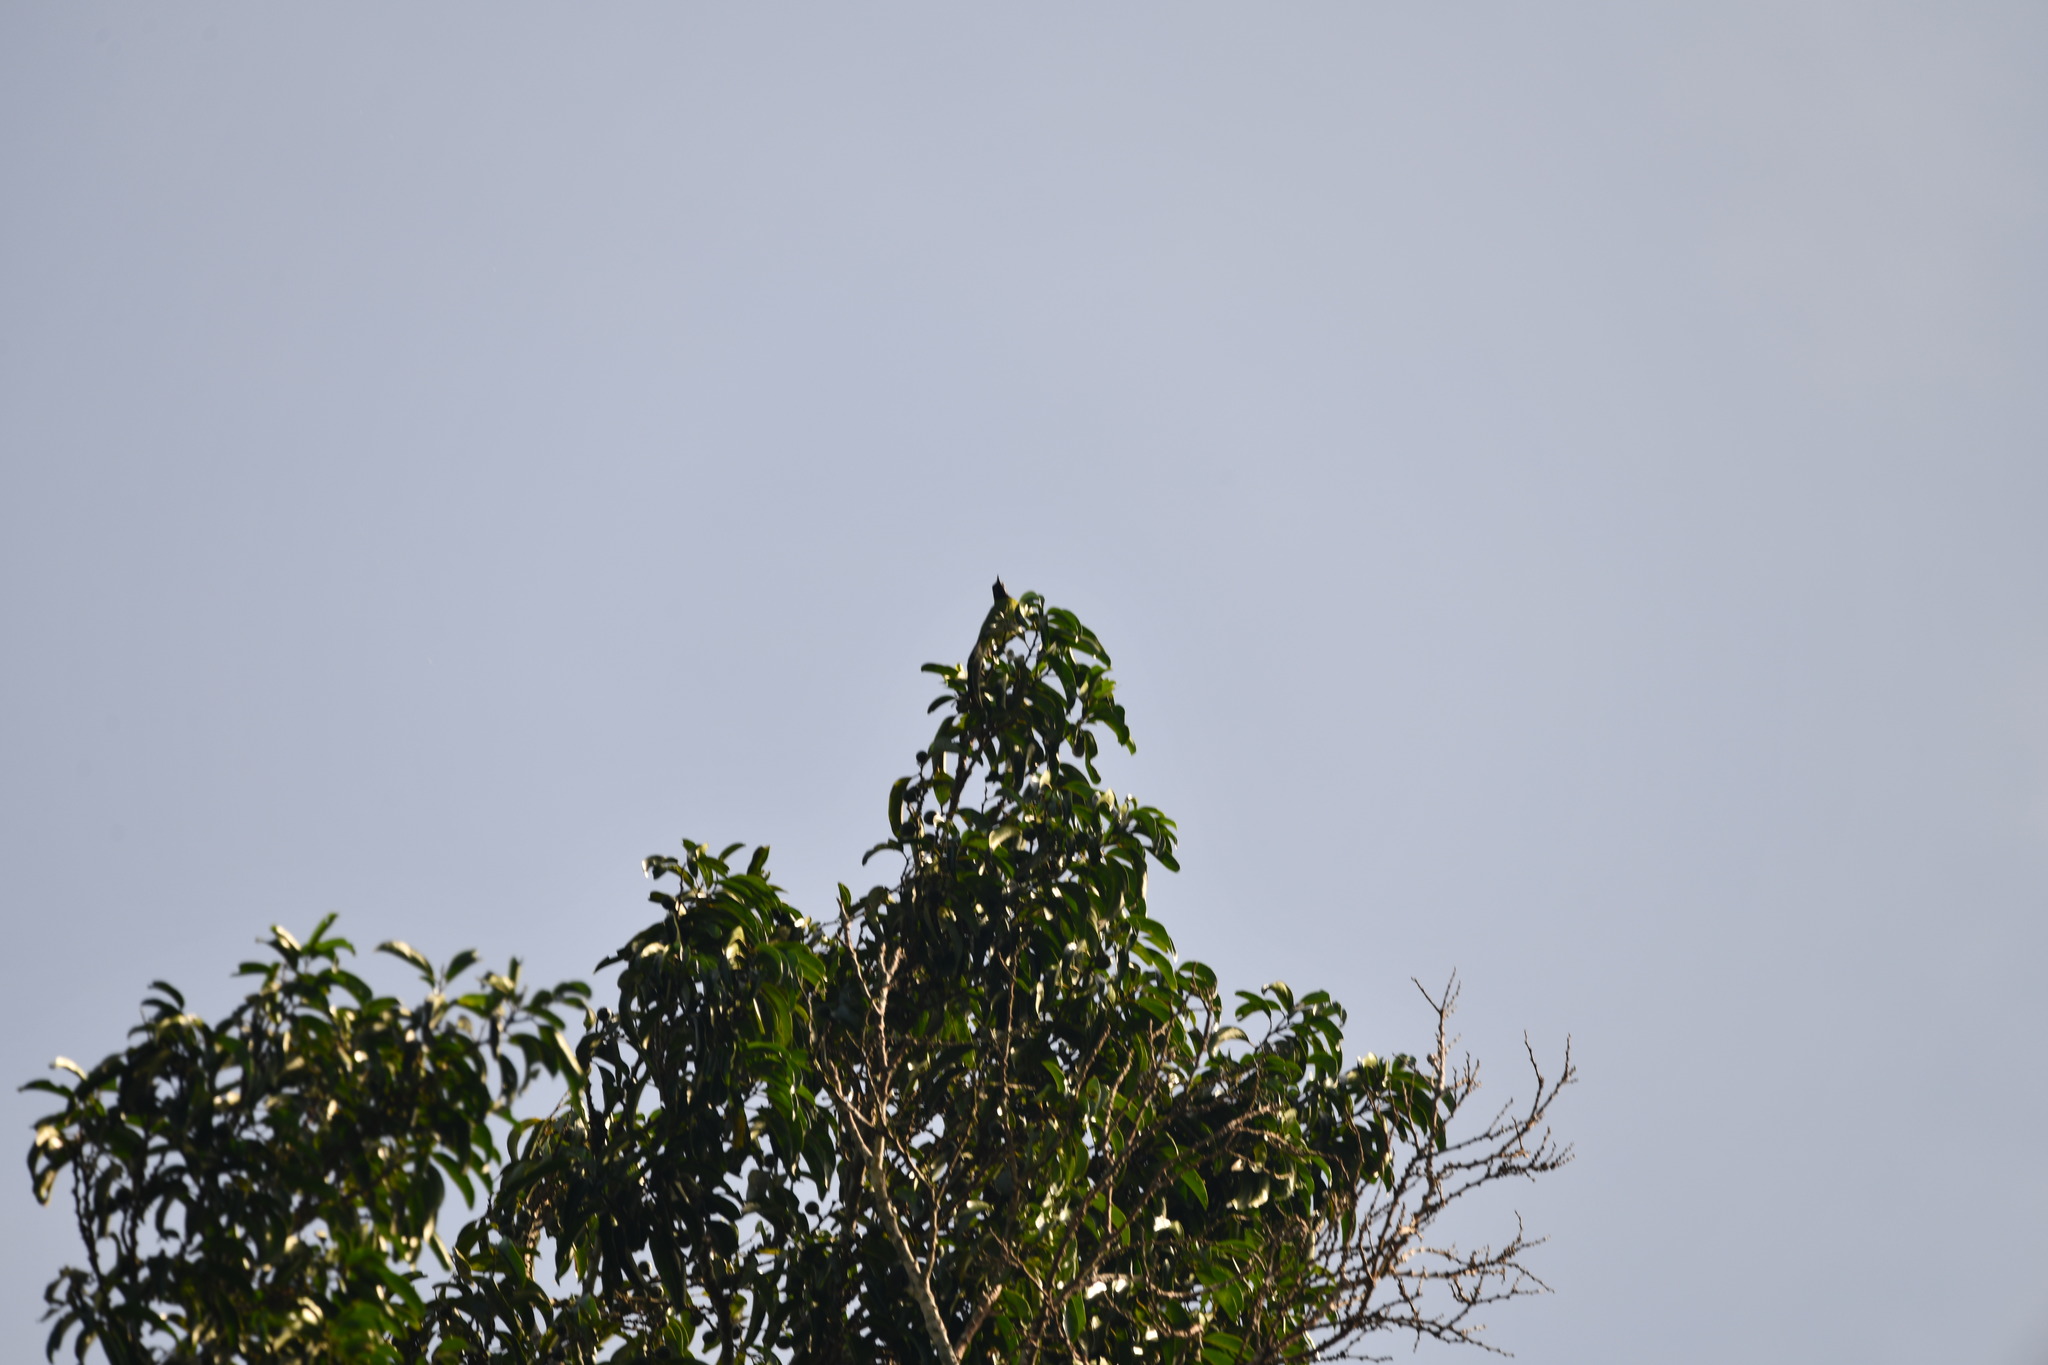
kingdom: Animalia
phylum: Chordata
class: Aves
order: Passeriformes
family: Chloropseidae
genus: Chloropsis
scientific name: Chloropsis aurifrons
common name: Golden-fronted leafbird
